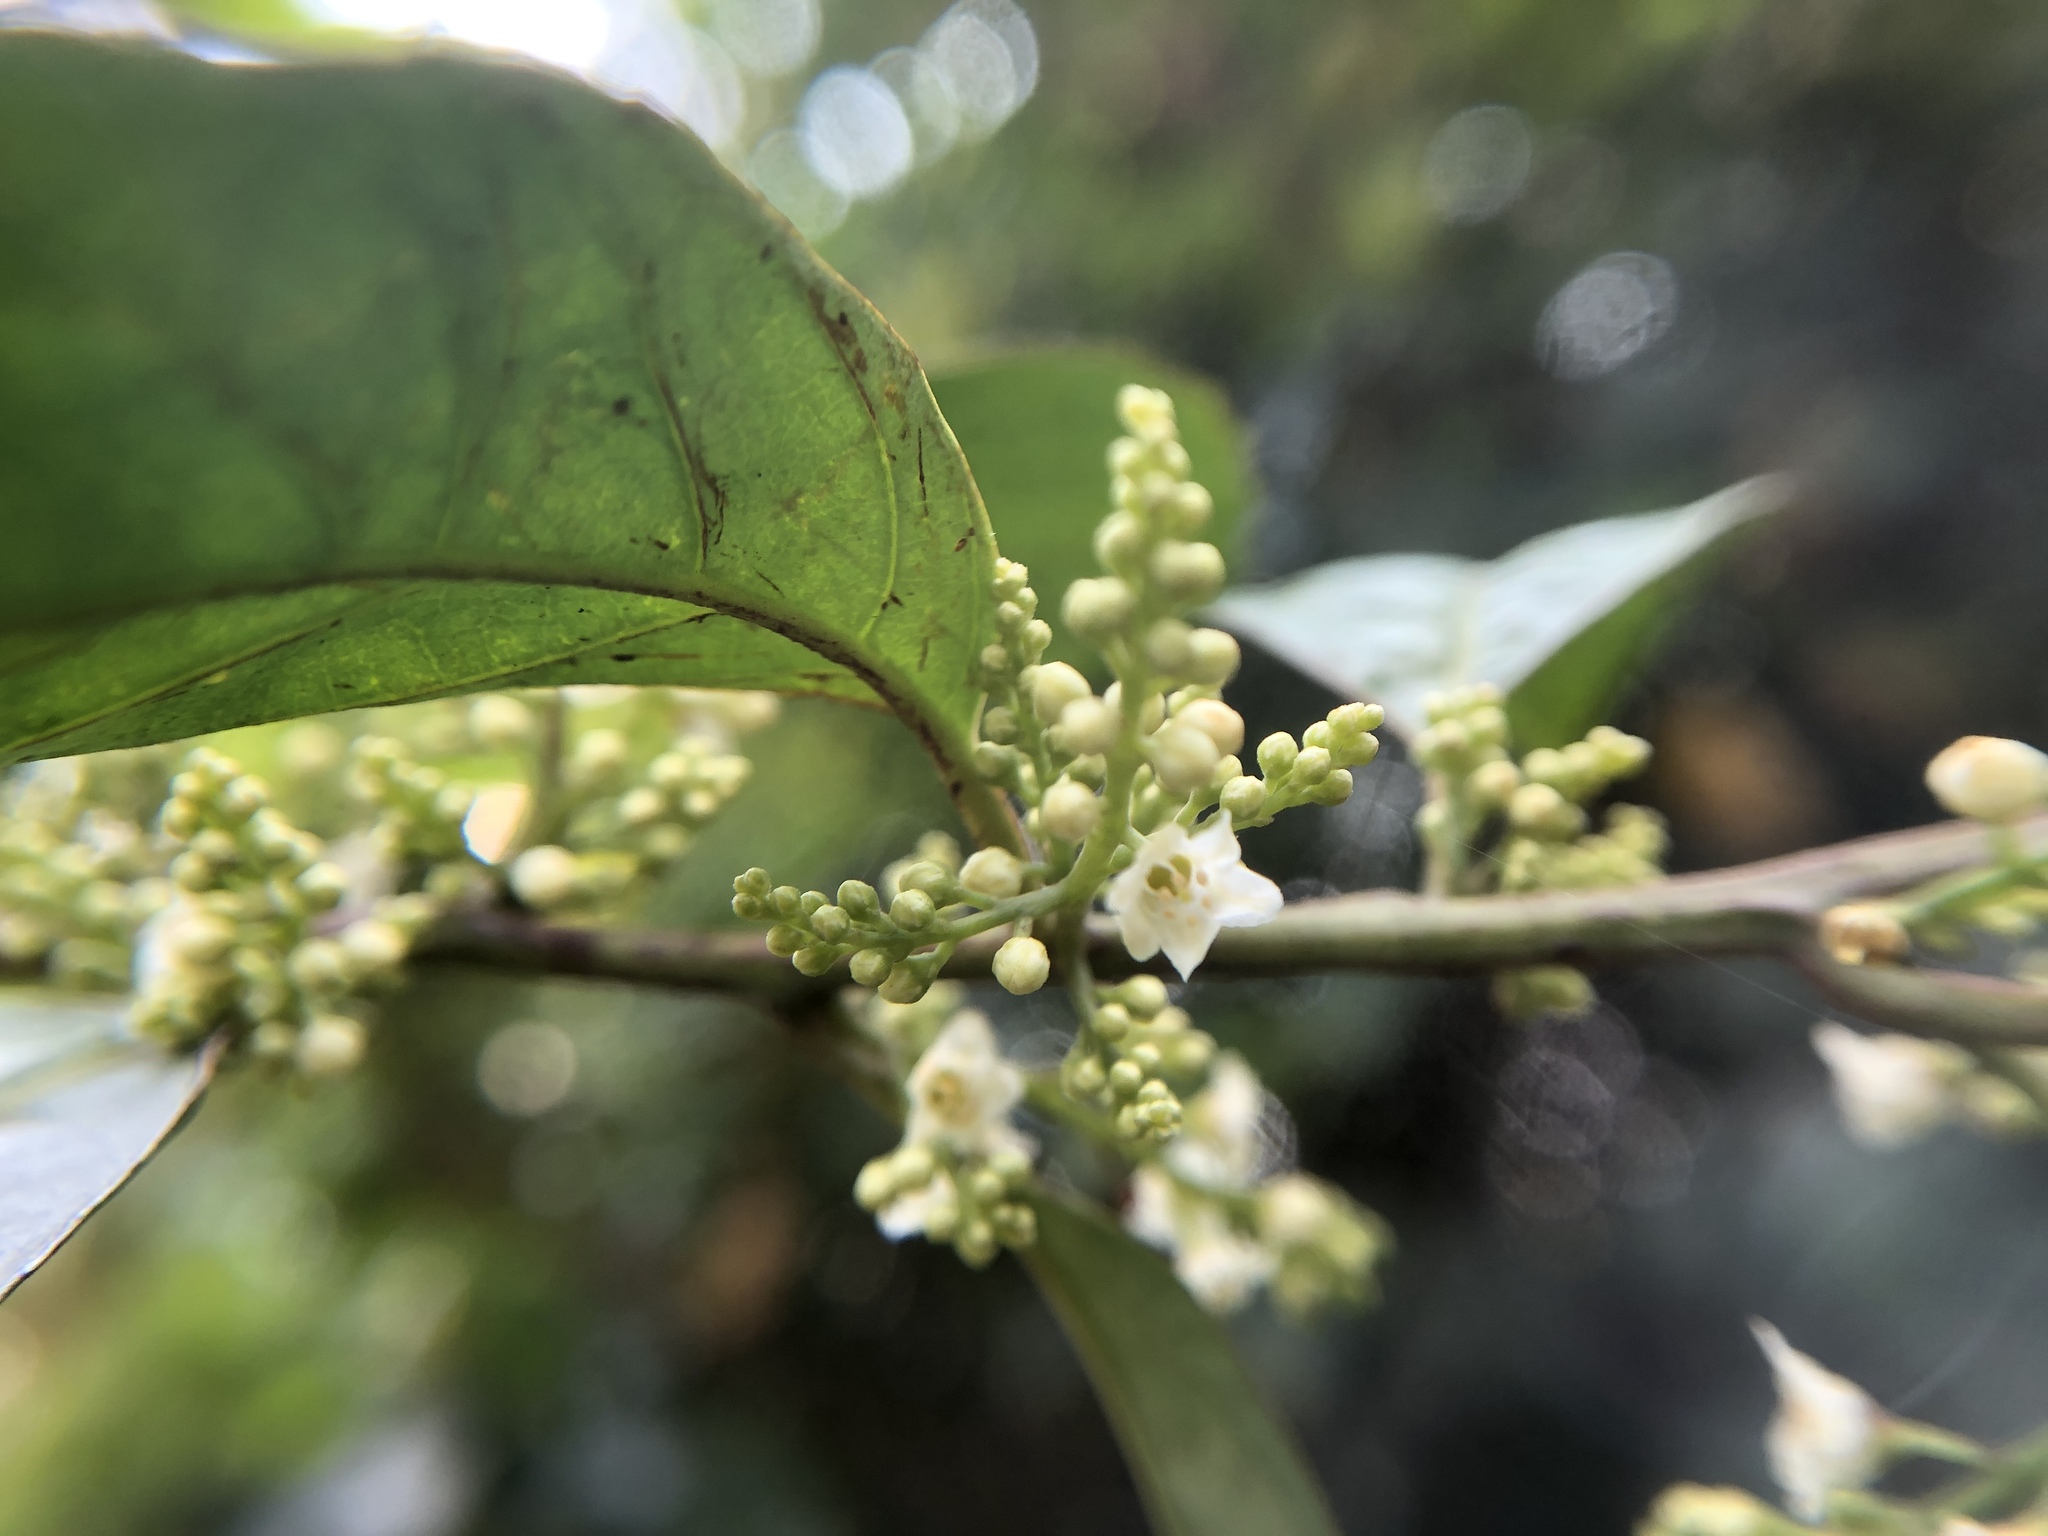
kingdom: Plantae
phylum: Tracheophyta
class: Magnoliopsida
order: Ericales
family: Primulaceae
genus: Maesa
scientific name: Maesa perlaria
